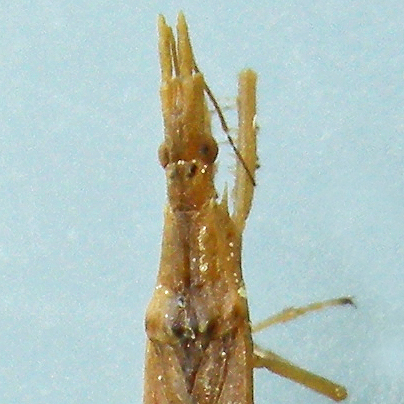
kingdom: Animalia
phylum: Arthropoda
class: Insecta
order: Hemiptera
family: Reduviidae
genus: Pnirontis
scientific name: Pnirontis modesta
